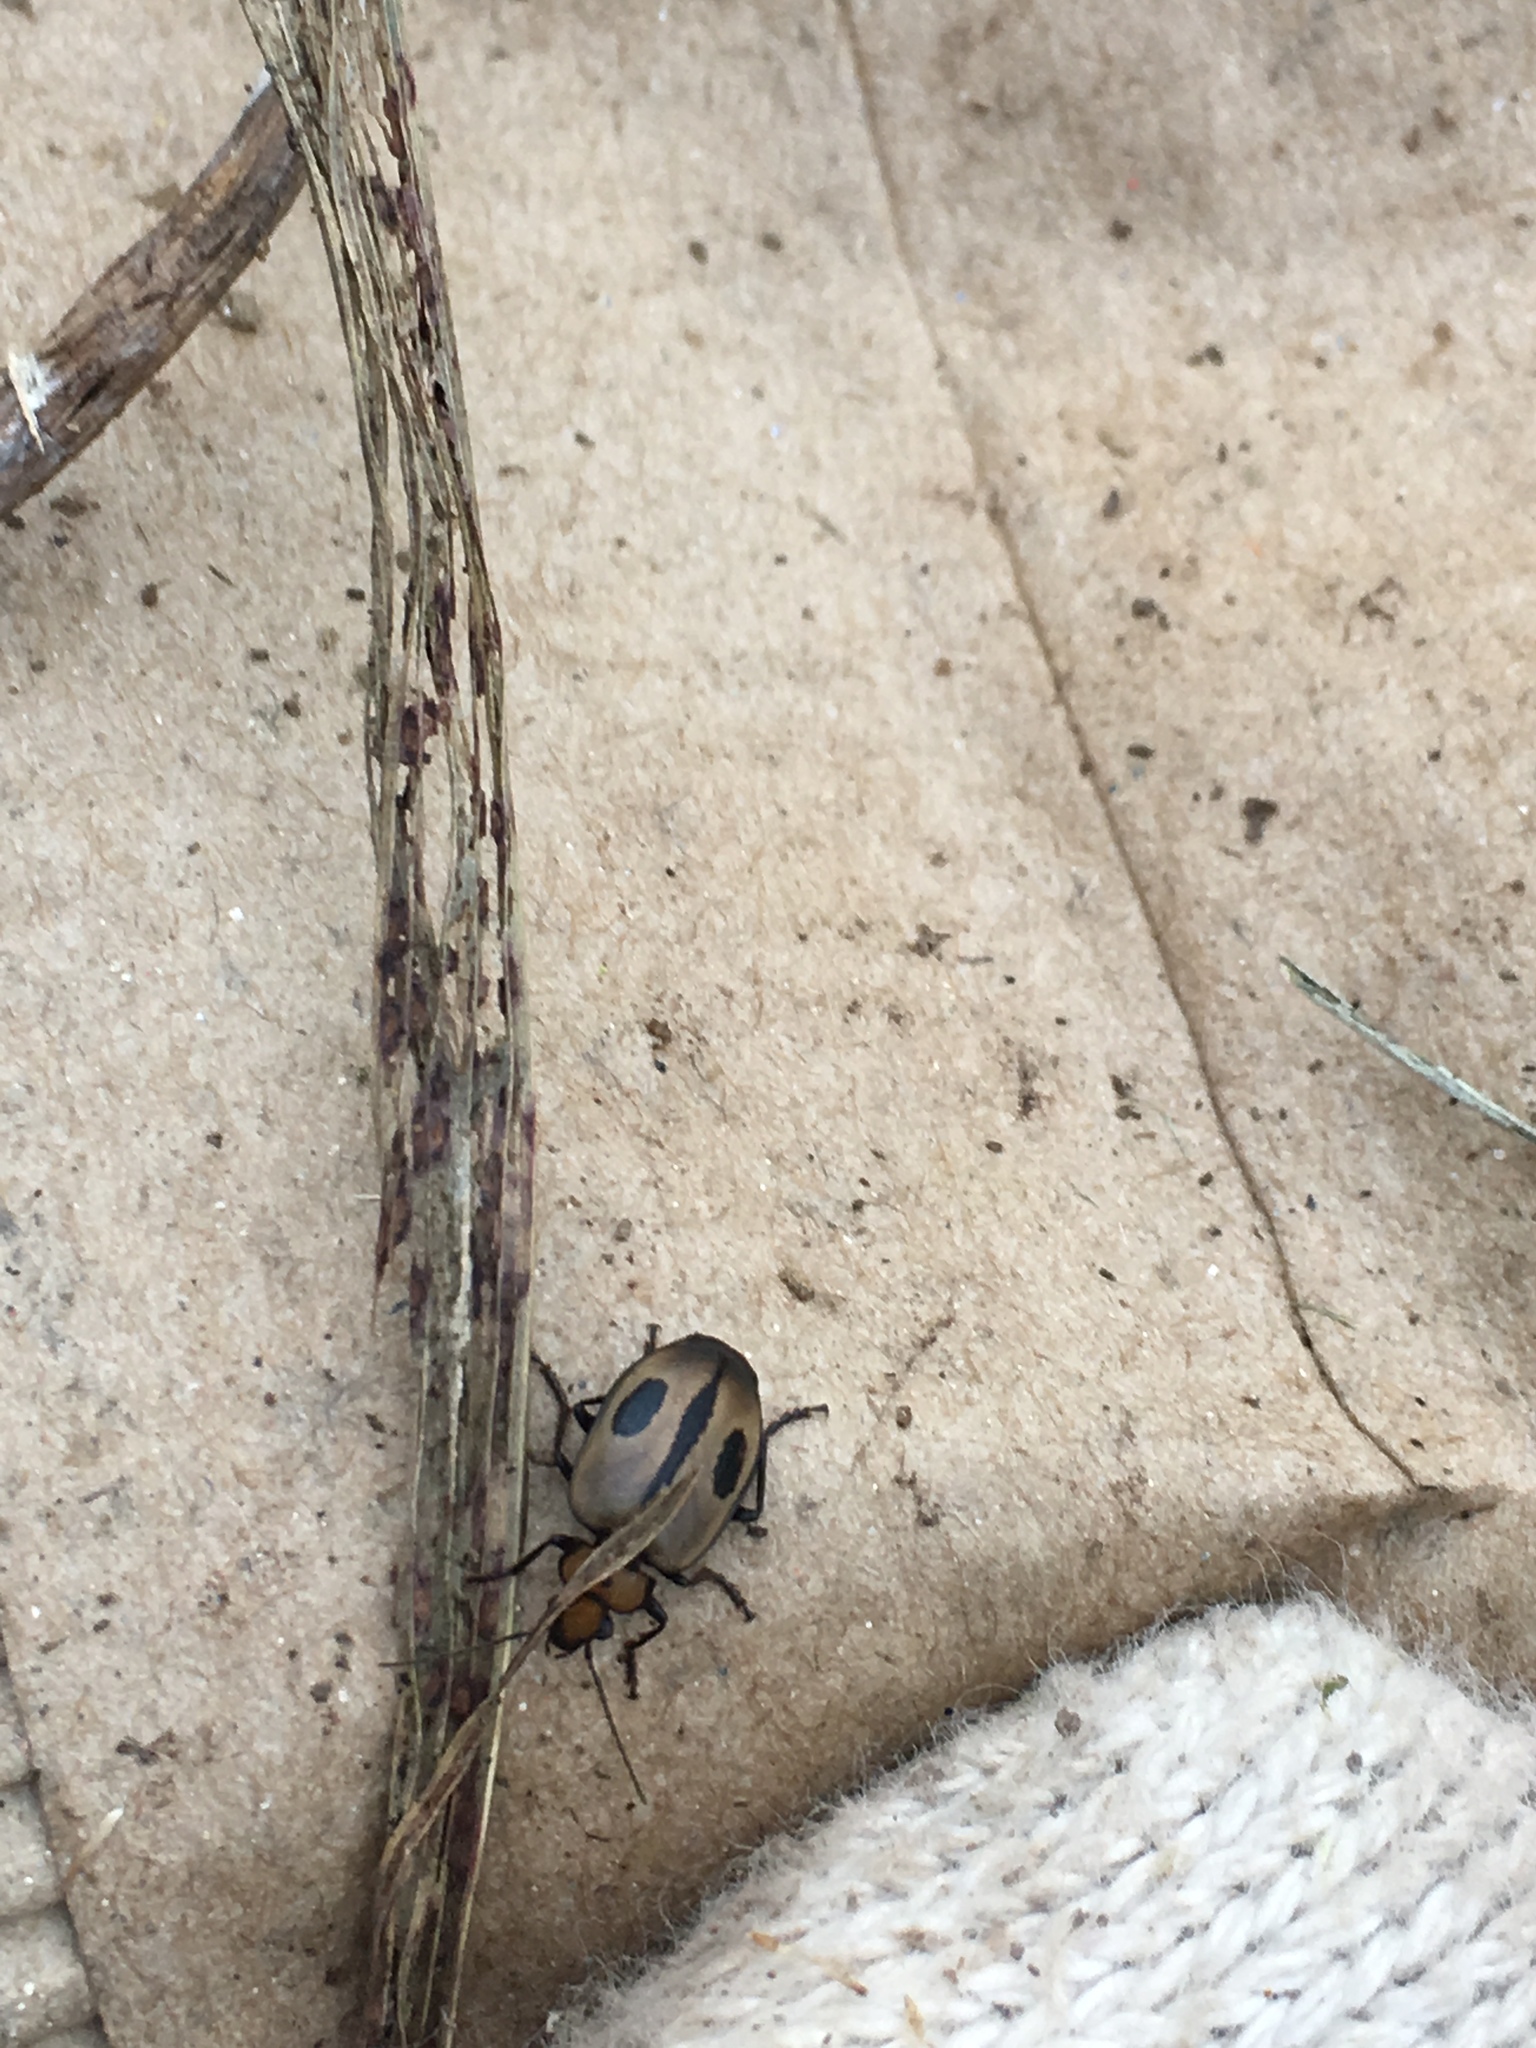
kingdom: Animalia
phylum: Arthropoda
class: Insecta
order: Coleoptera
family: Carabidae
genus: Lebia
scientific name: Lebia clavata
